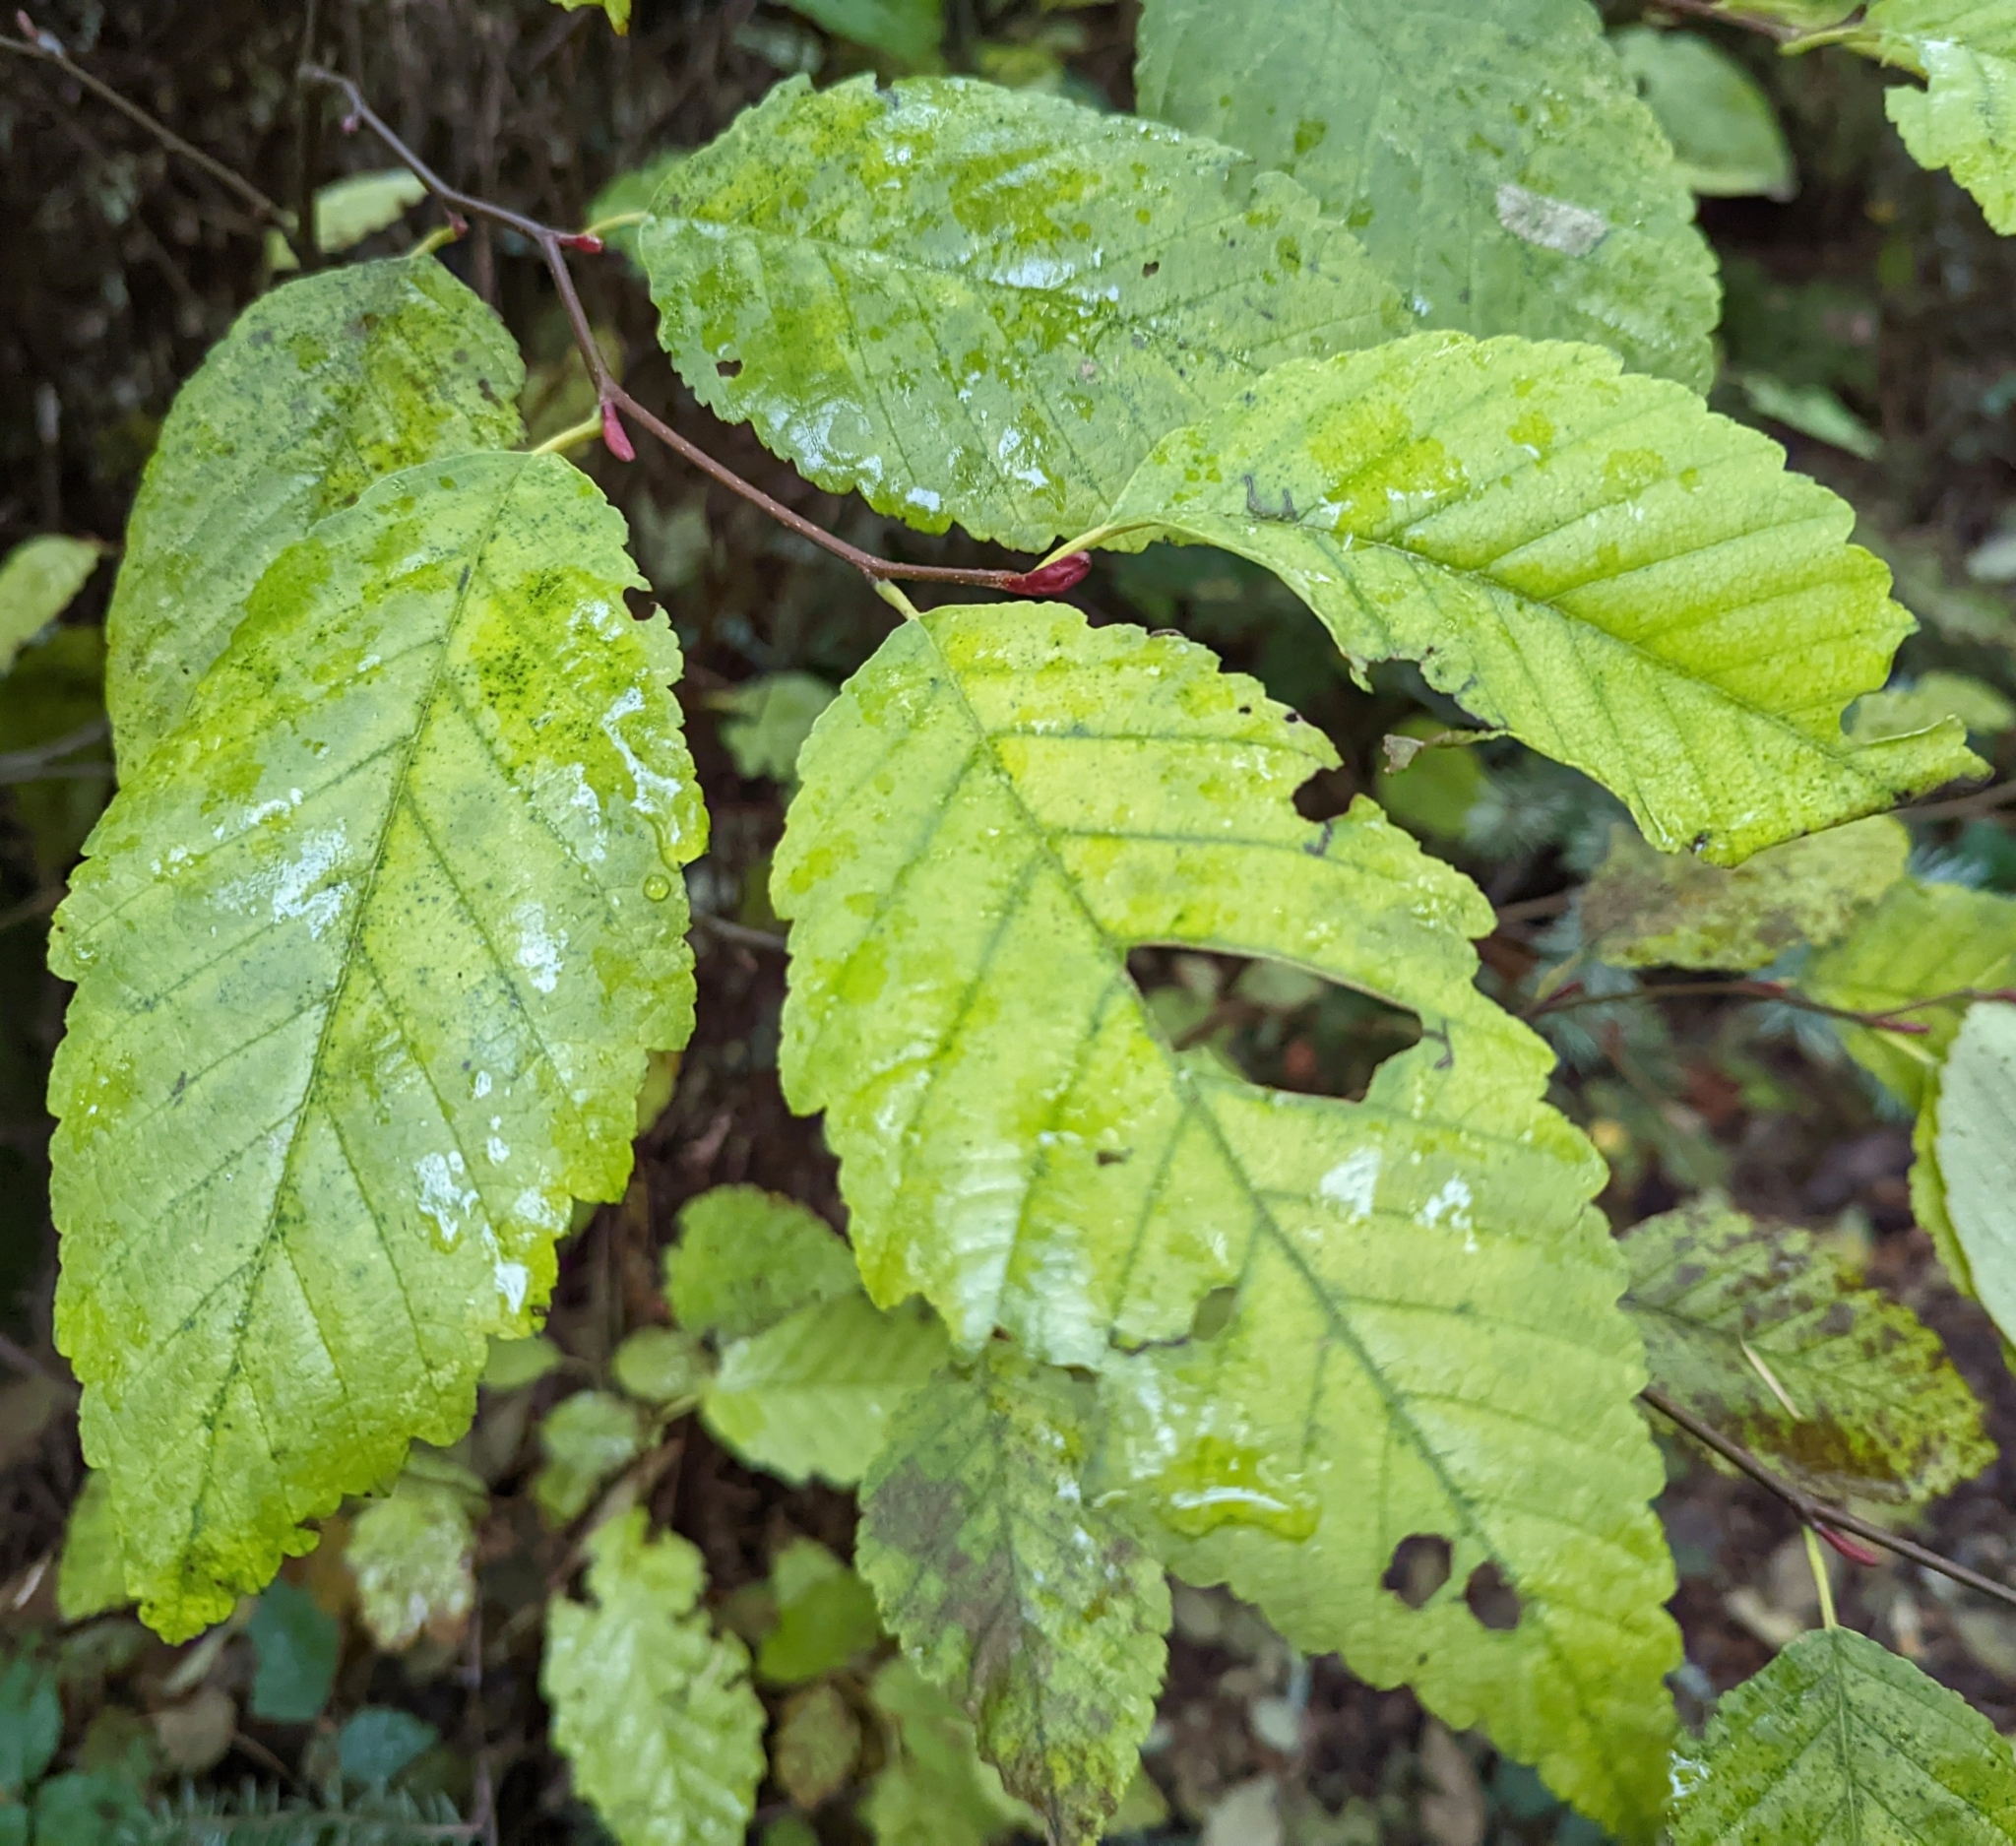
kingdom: Plantae
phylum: Tracheophyta
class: Magnoliopsida
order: Fagales
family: Betulaceae
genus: Alnus
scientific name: Alnus rubra
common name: Red alder
